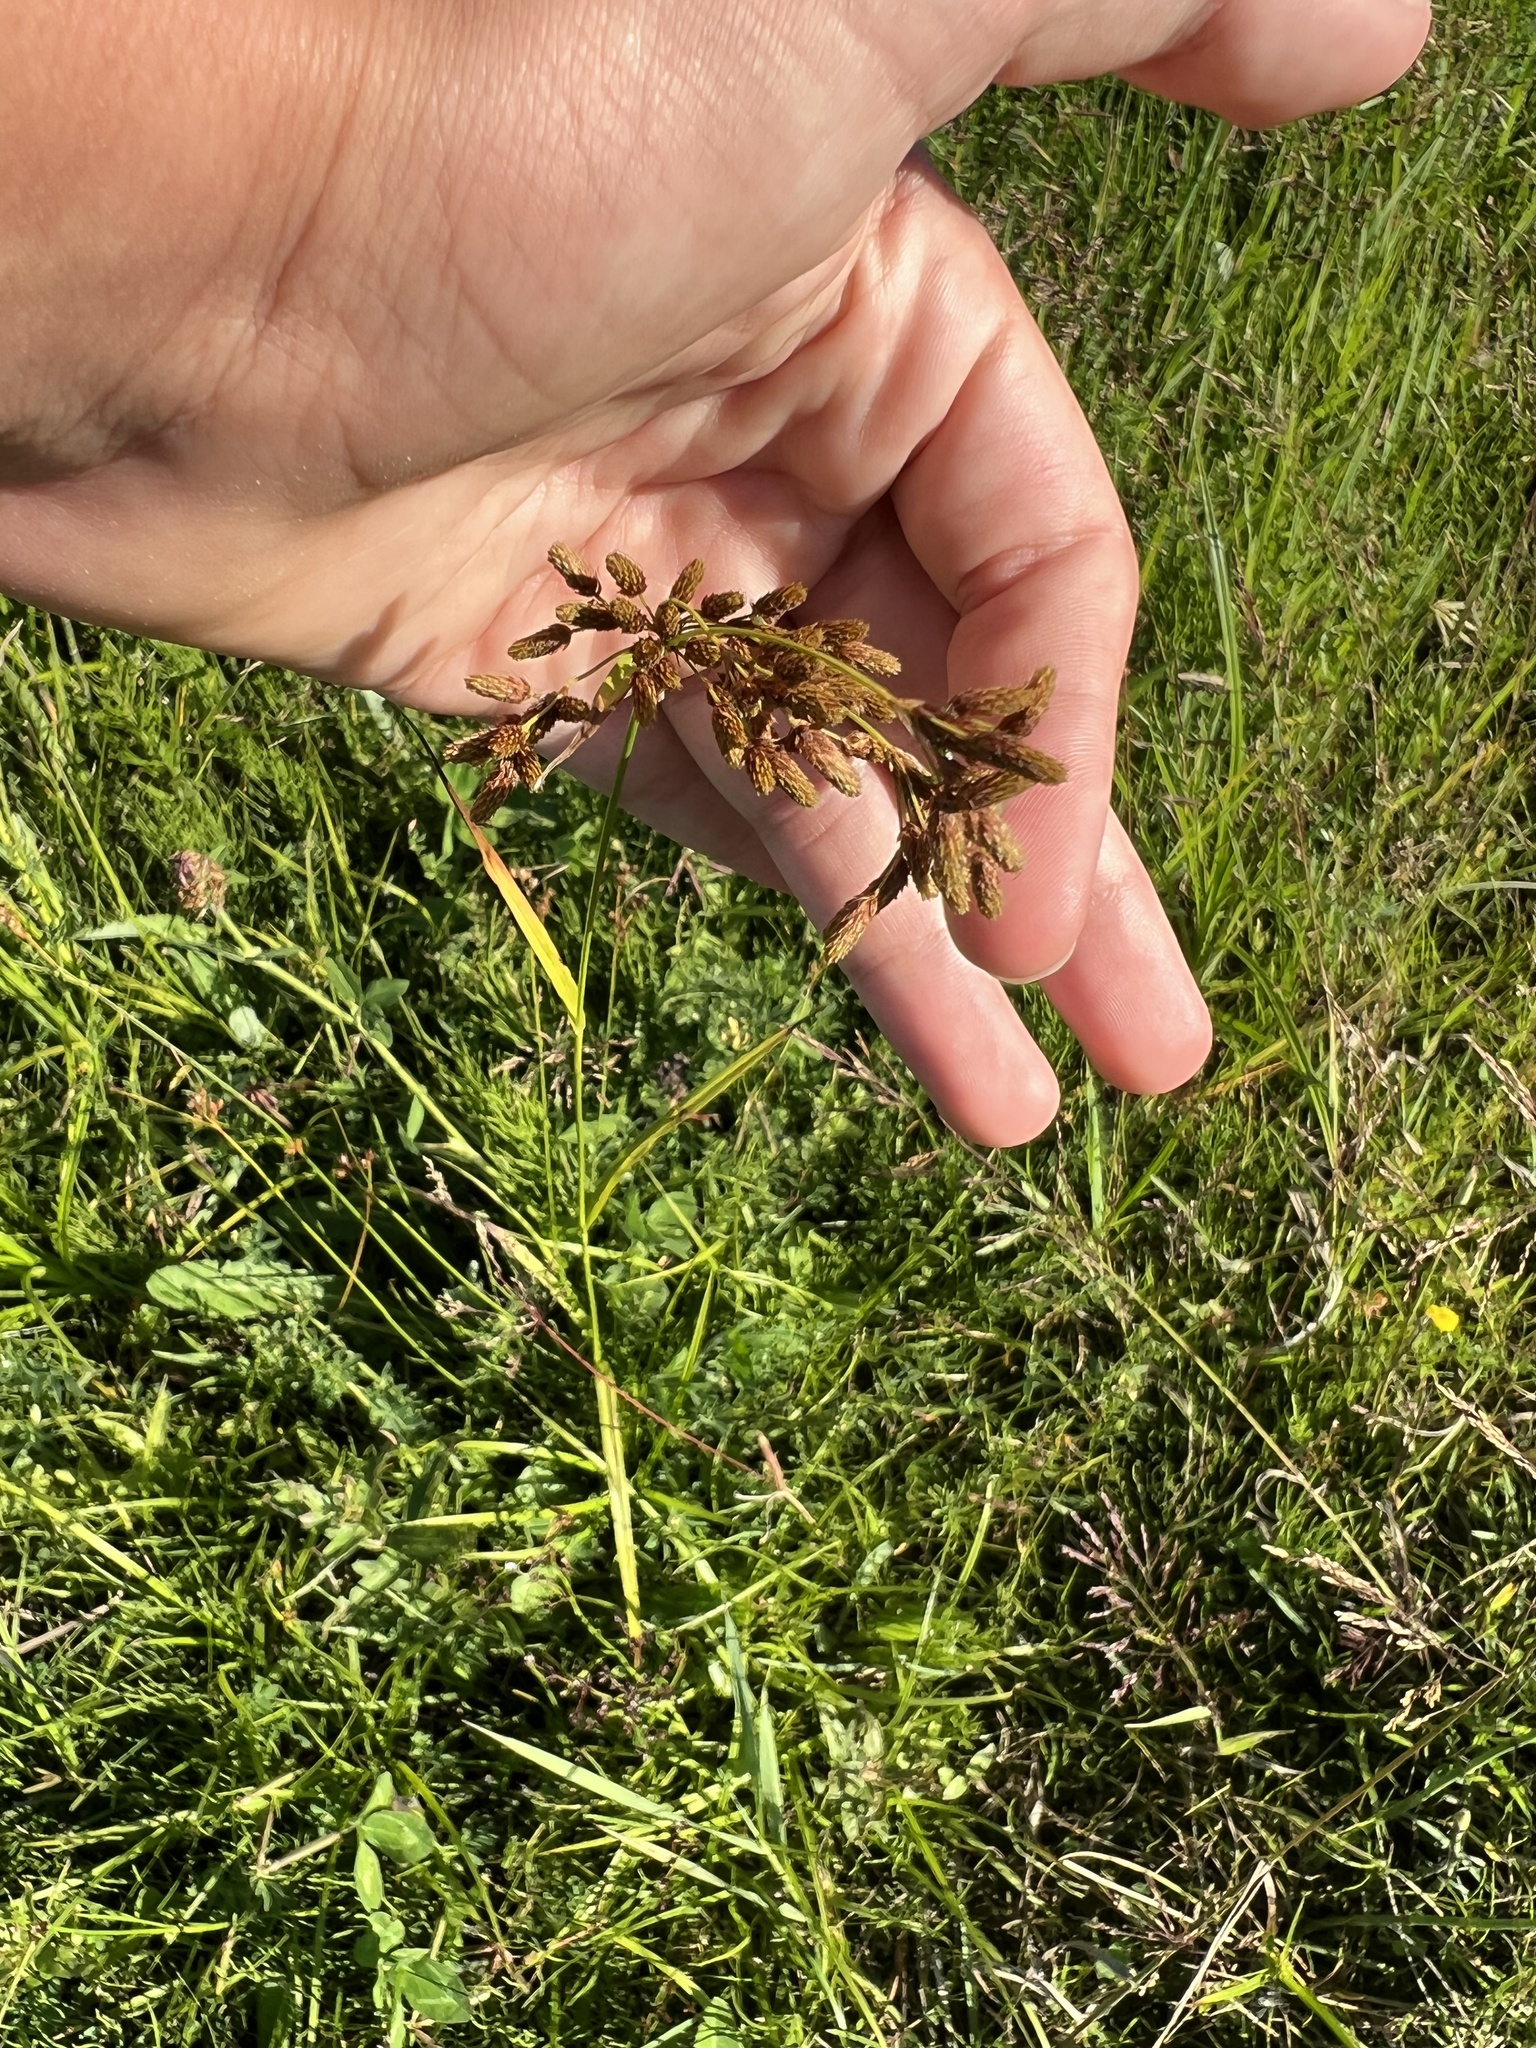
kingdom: Plantae
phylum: Tracheophyta
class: Liliopsida
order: Poales
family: Cyperaceae
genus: Scirpus
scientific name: Scirpus pendulus
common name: Nodding bulrush
